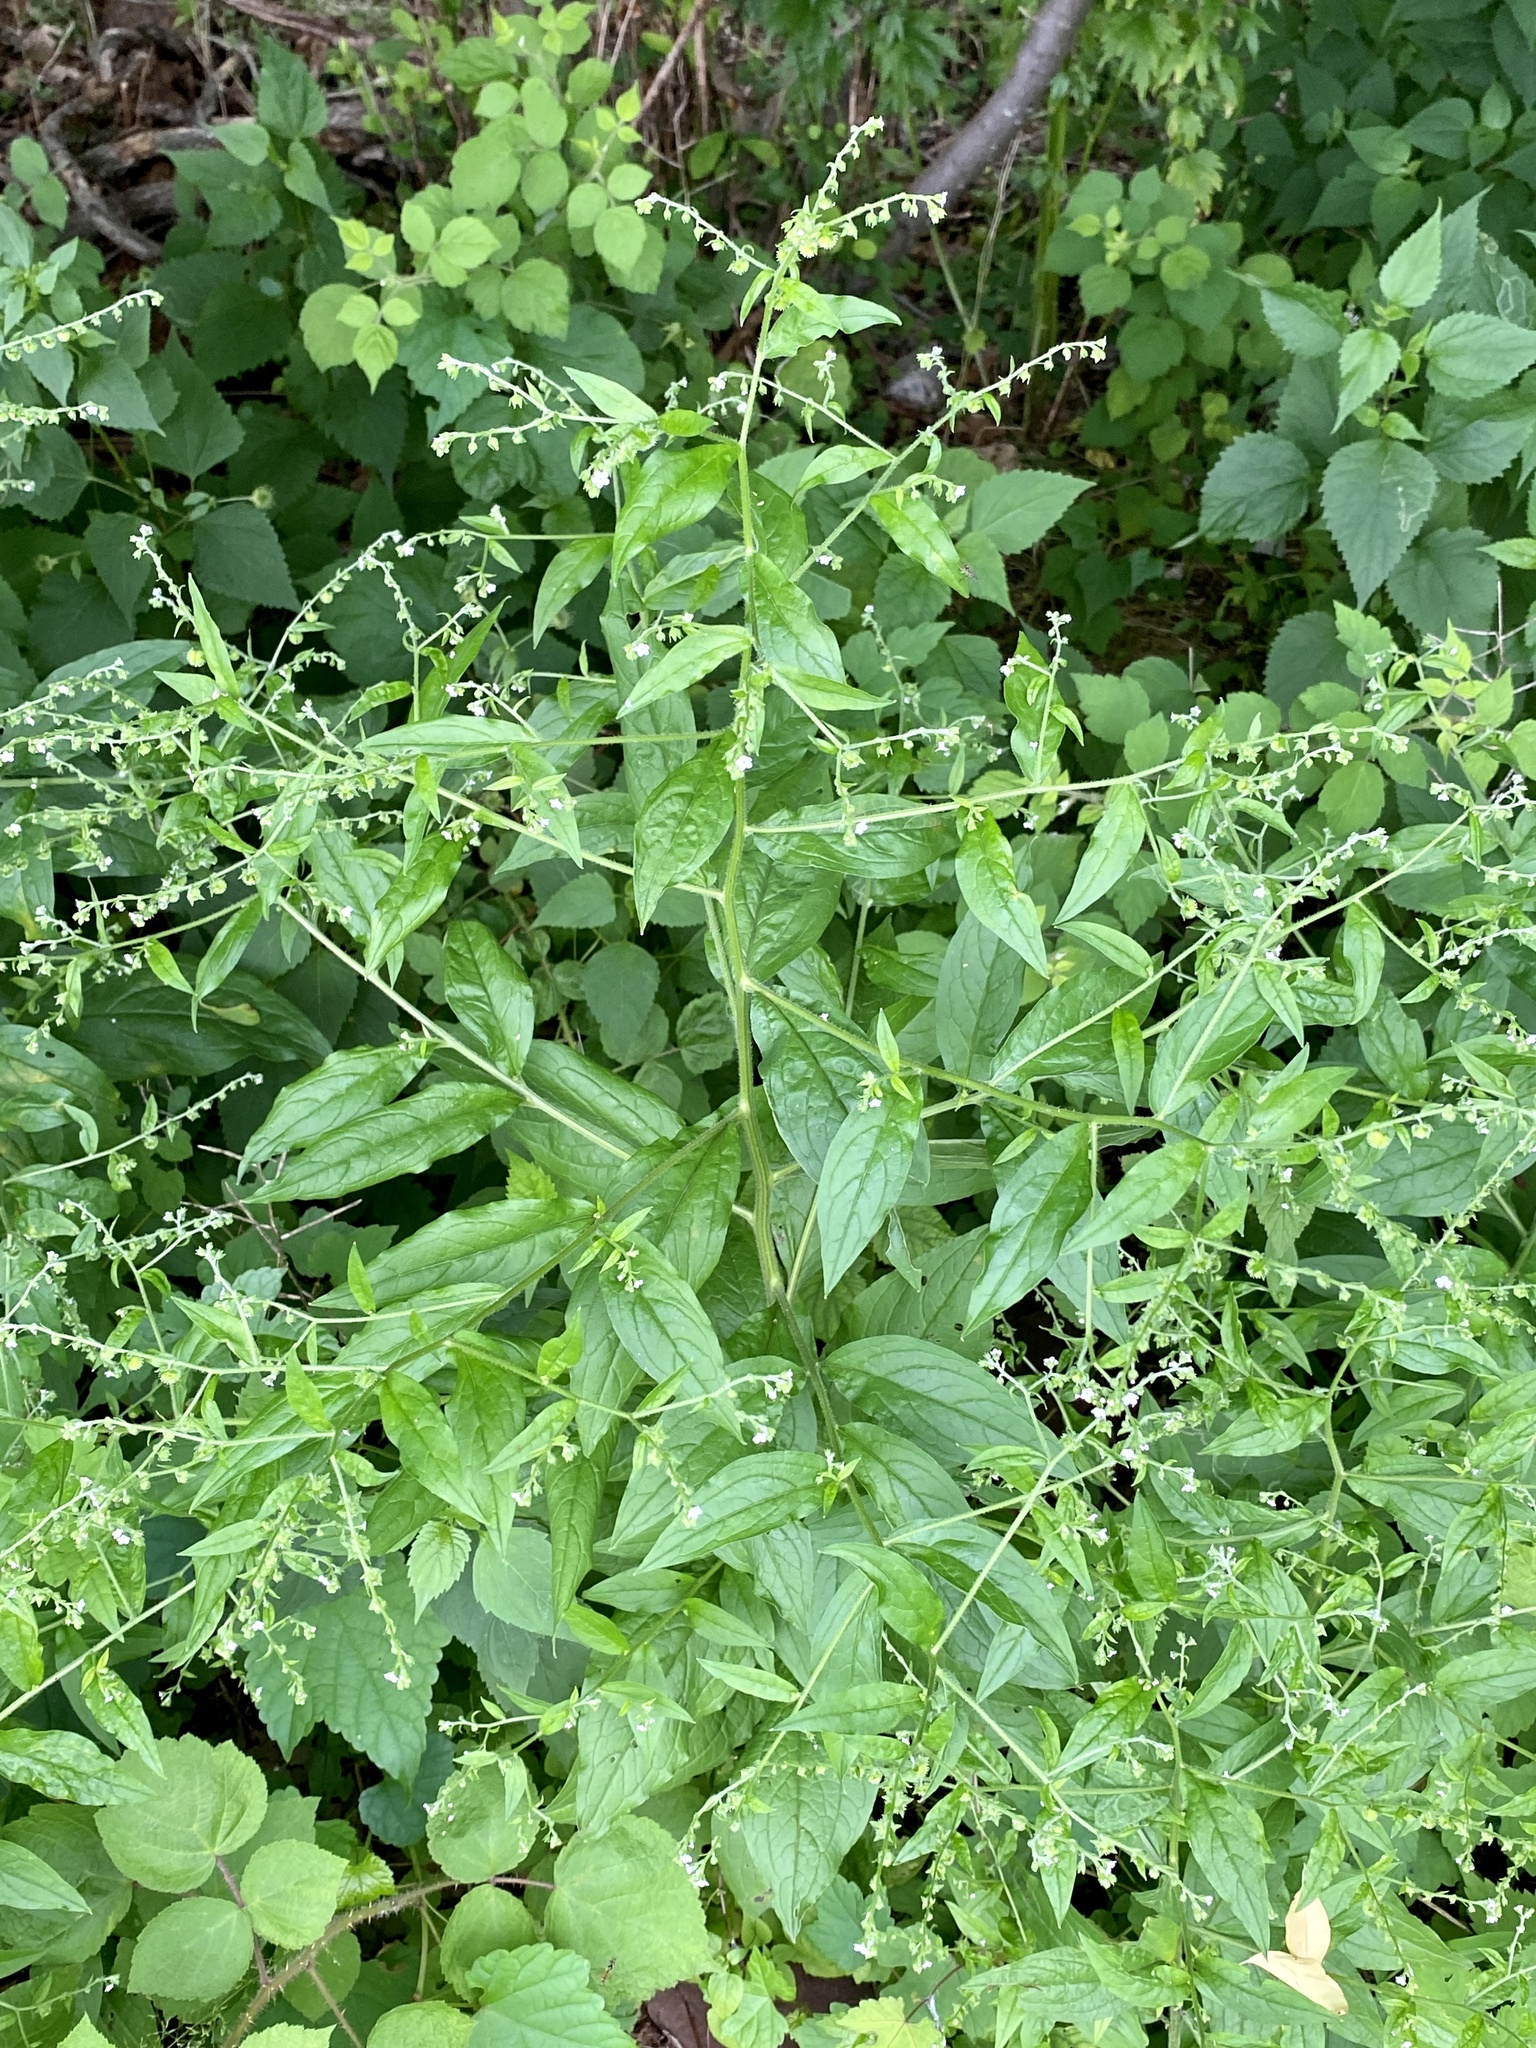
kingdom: Plantae
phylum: Tracheophyta
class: Magnoliopsida
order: Boraginales
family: Boraginaceae
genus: Hackelia
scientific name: Hackelia virginiana
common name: Beggar's-lice
